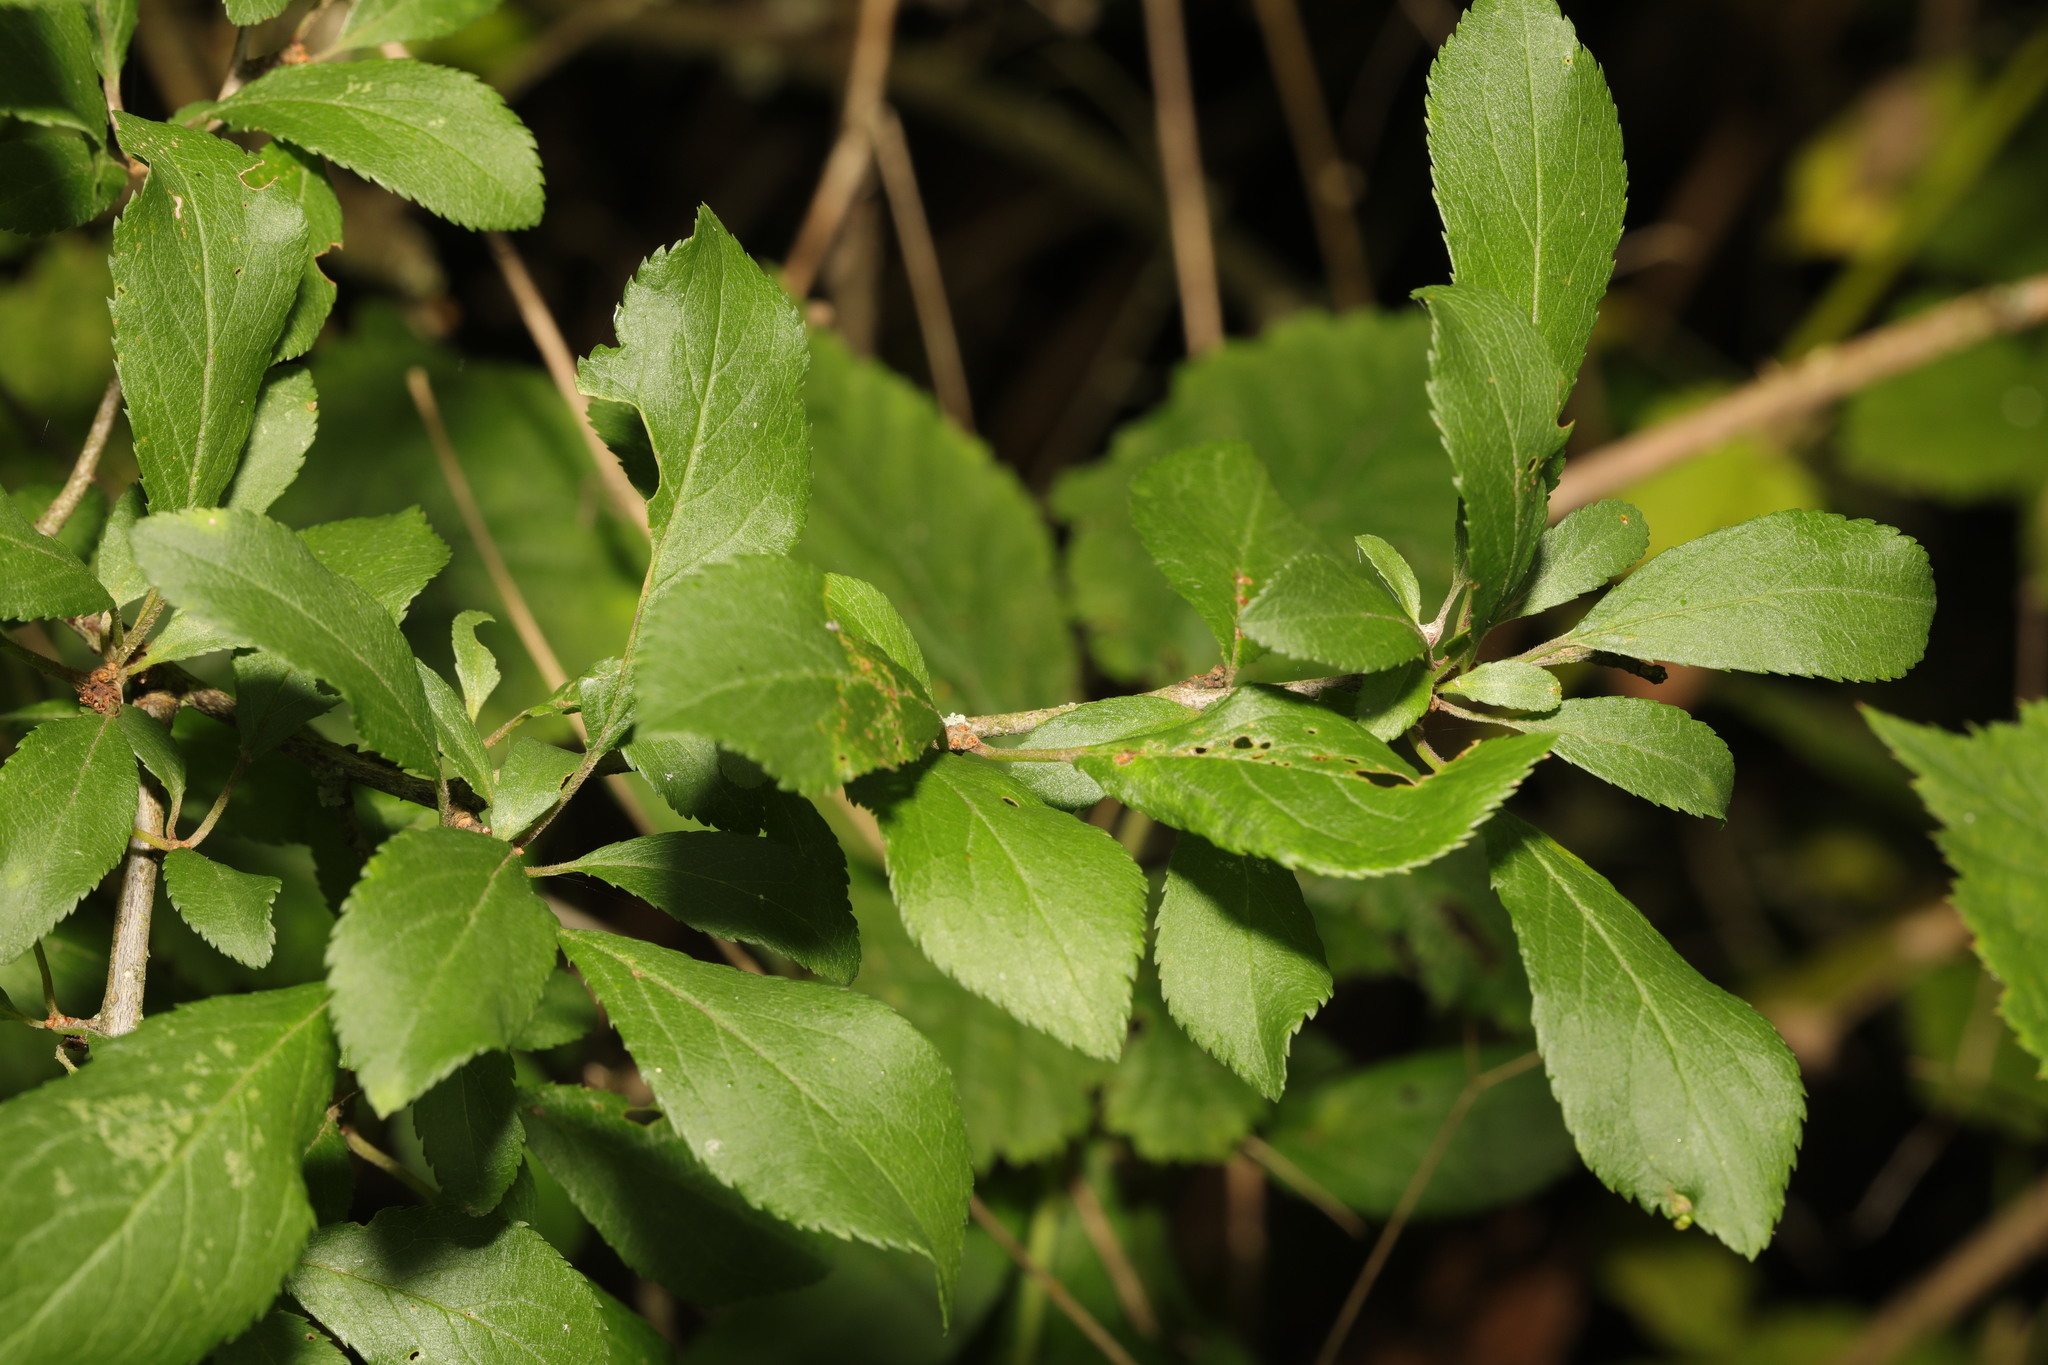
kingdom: Plantae
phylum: Tracheophyta
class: Magnoliopsida
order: Rosales
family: Rosaceae
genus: Prunus
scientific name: Prunus spinosa
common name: Blackthorn
